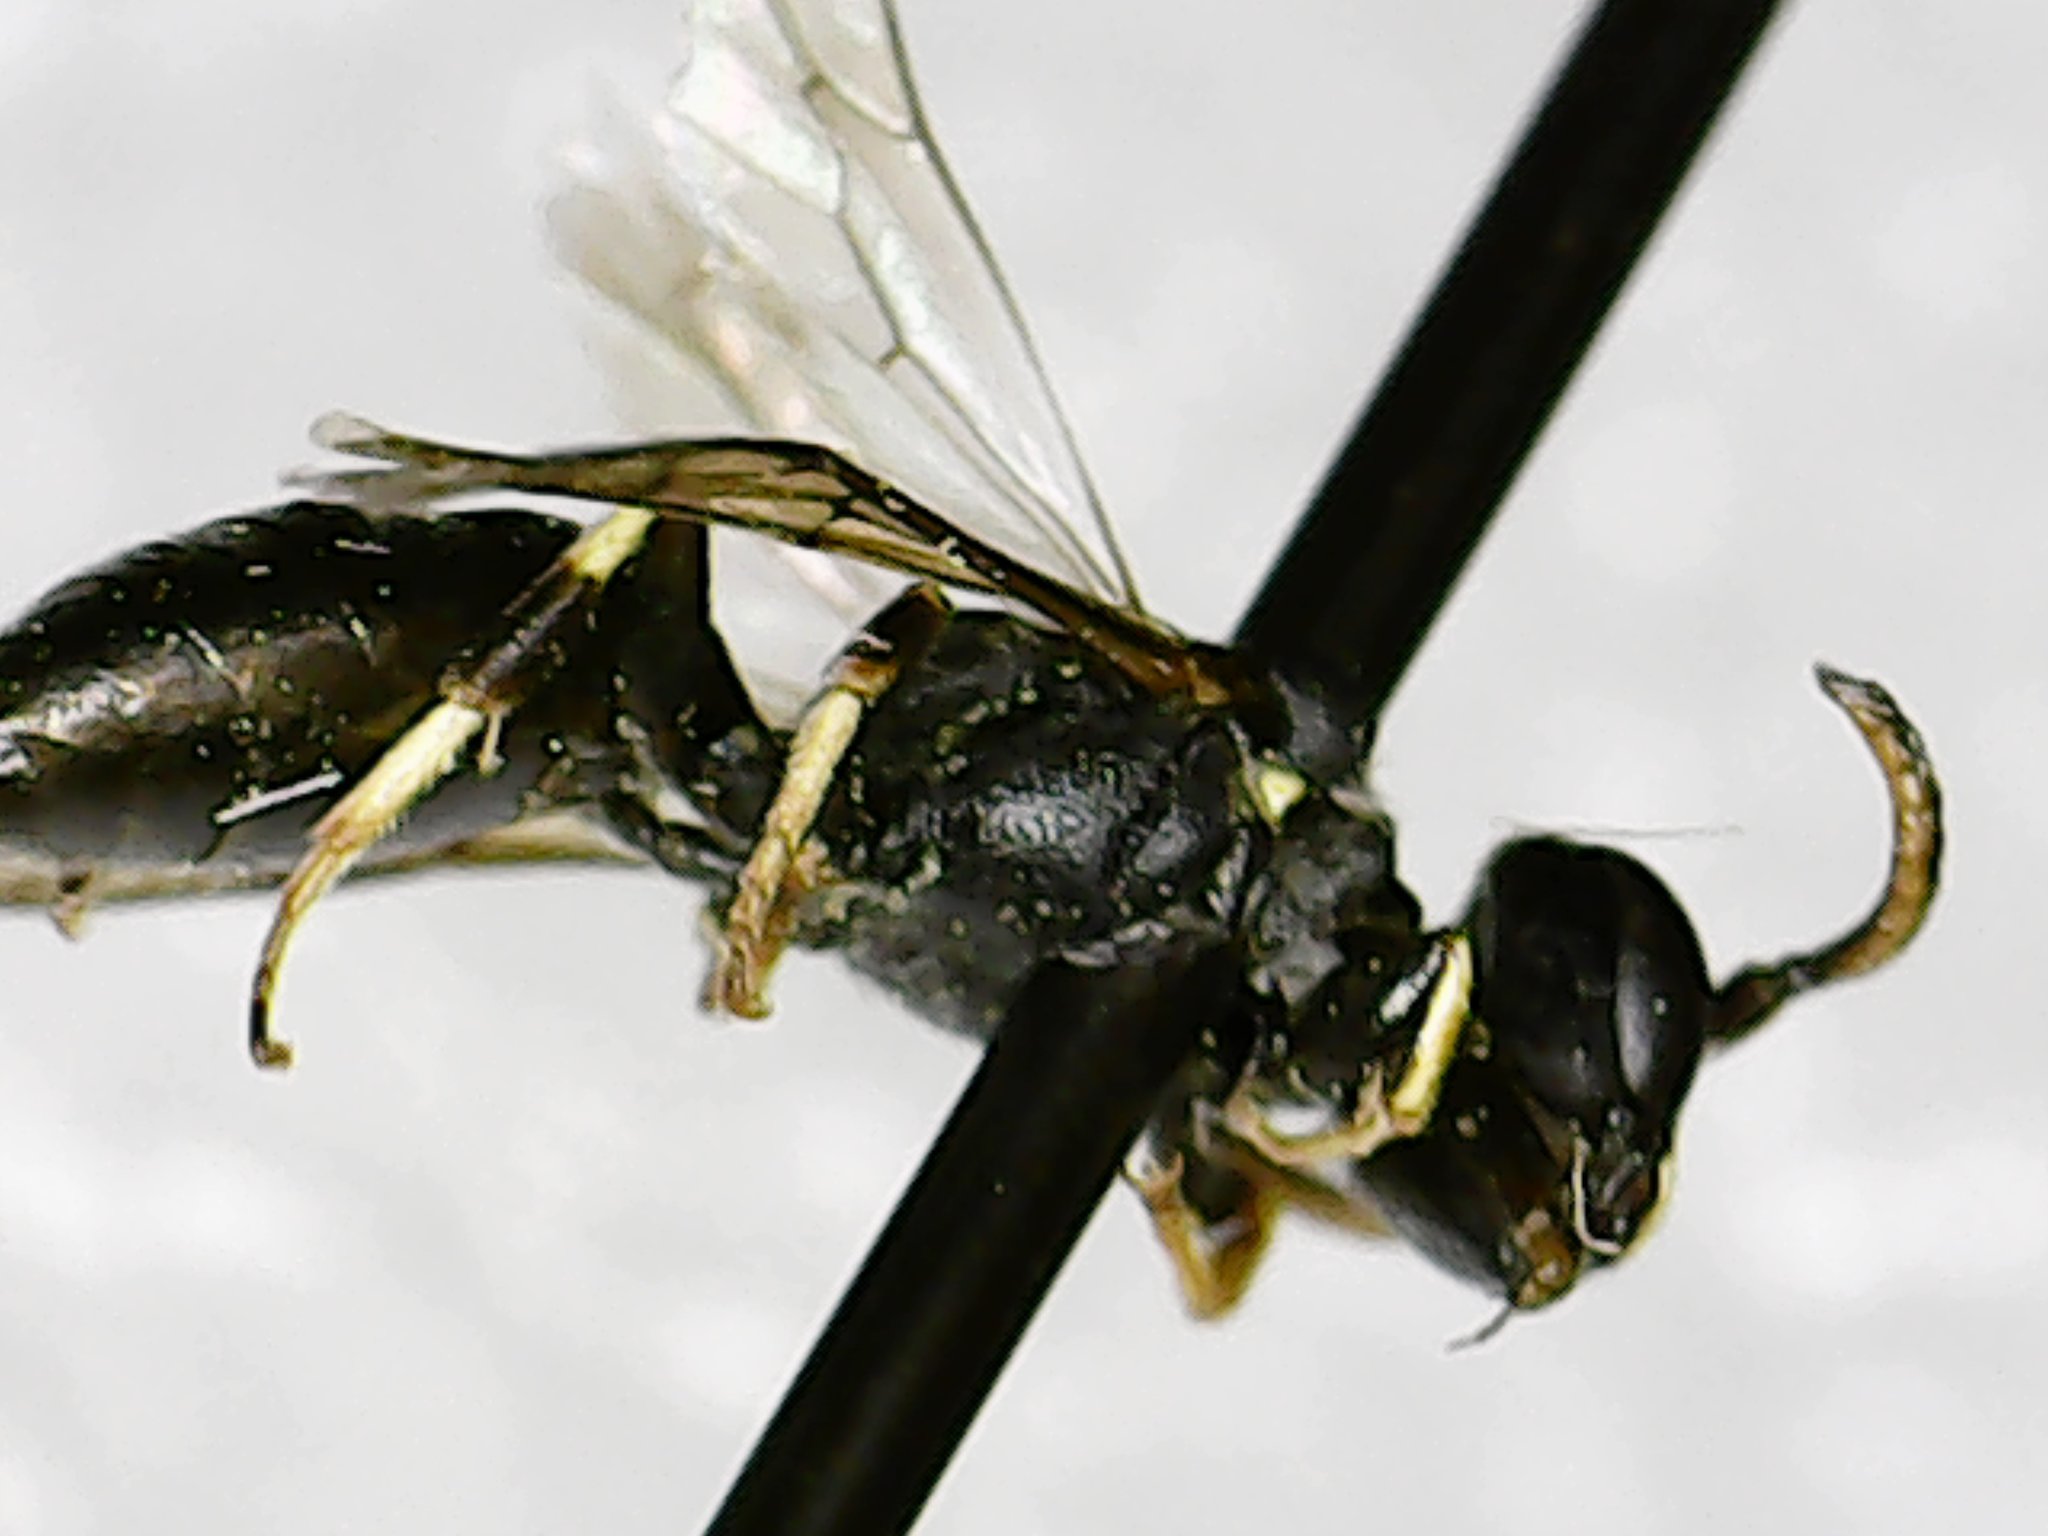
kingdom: Animalia
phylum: Arthropoda
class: Insecta
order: Hymenoptera
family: Colletidae
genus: Hylaeus
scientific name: Hylaeus mesillae
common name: Mesilla masked bee
